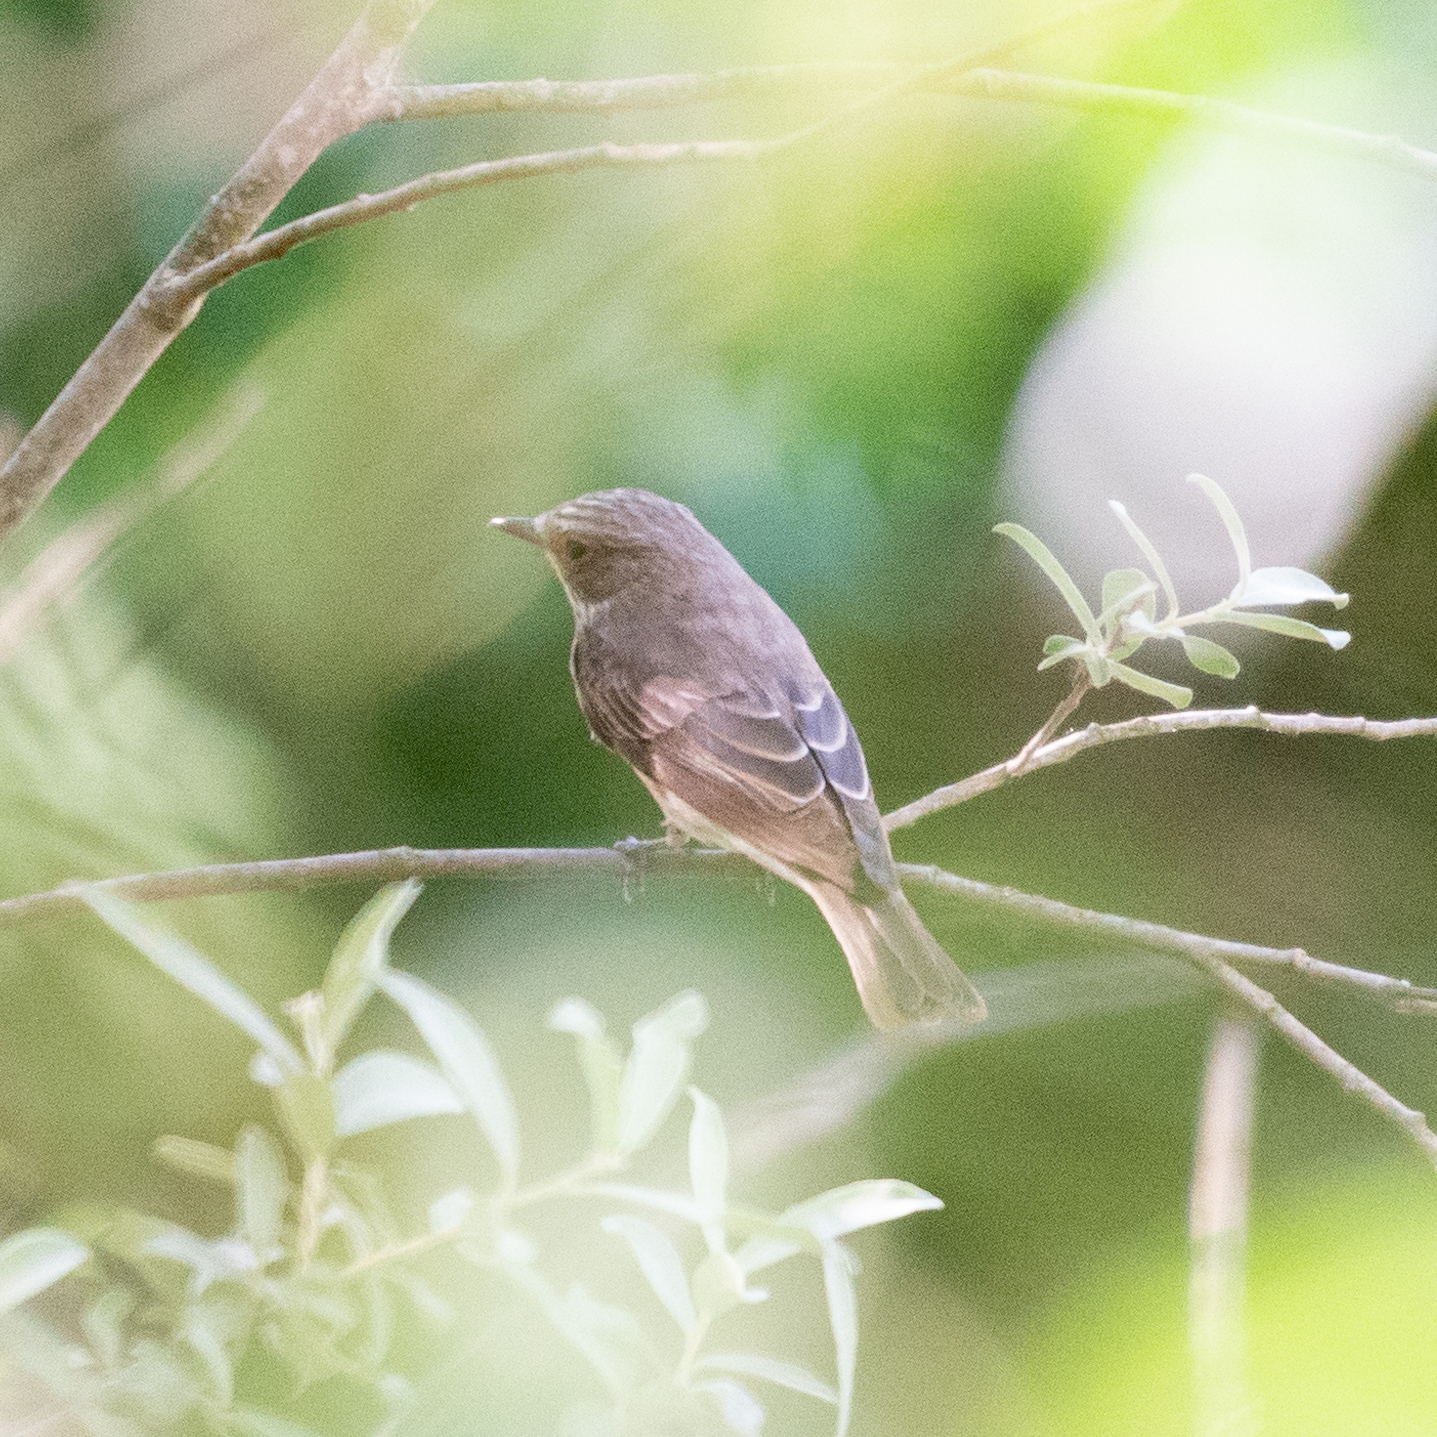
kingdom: Animalia
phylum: Chordata
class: Aves
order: Passeriformes
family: Muscicapidae
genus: Muscicapa
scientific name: Muscicapa striata
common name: Spotted flycatcher
